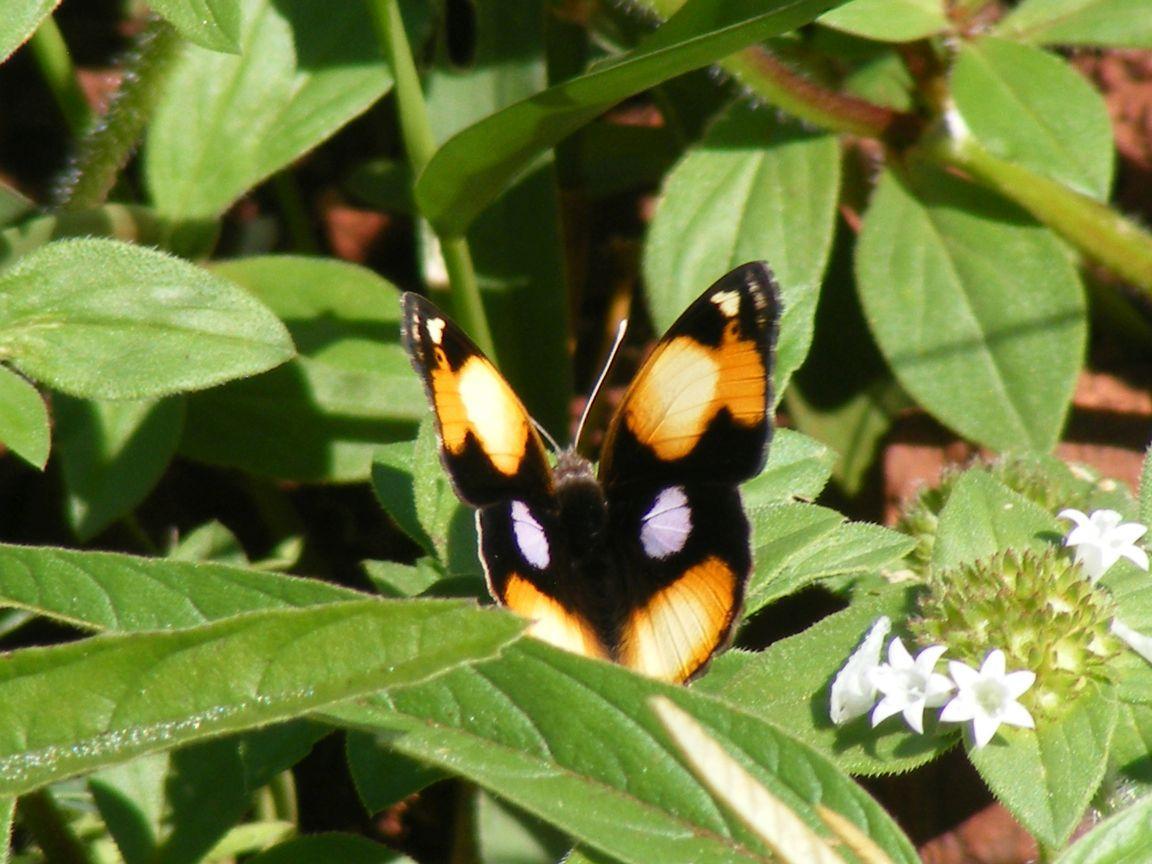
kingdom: Animalia
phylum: Arthropoda
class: Insecta
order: Lepidoptera
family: Nymphalidae
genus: Junonia
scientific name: Junonia hierta
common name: Yellow pansy
